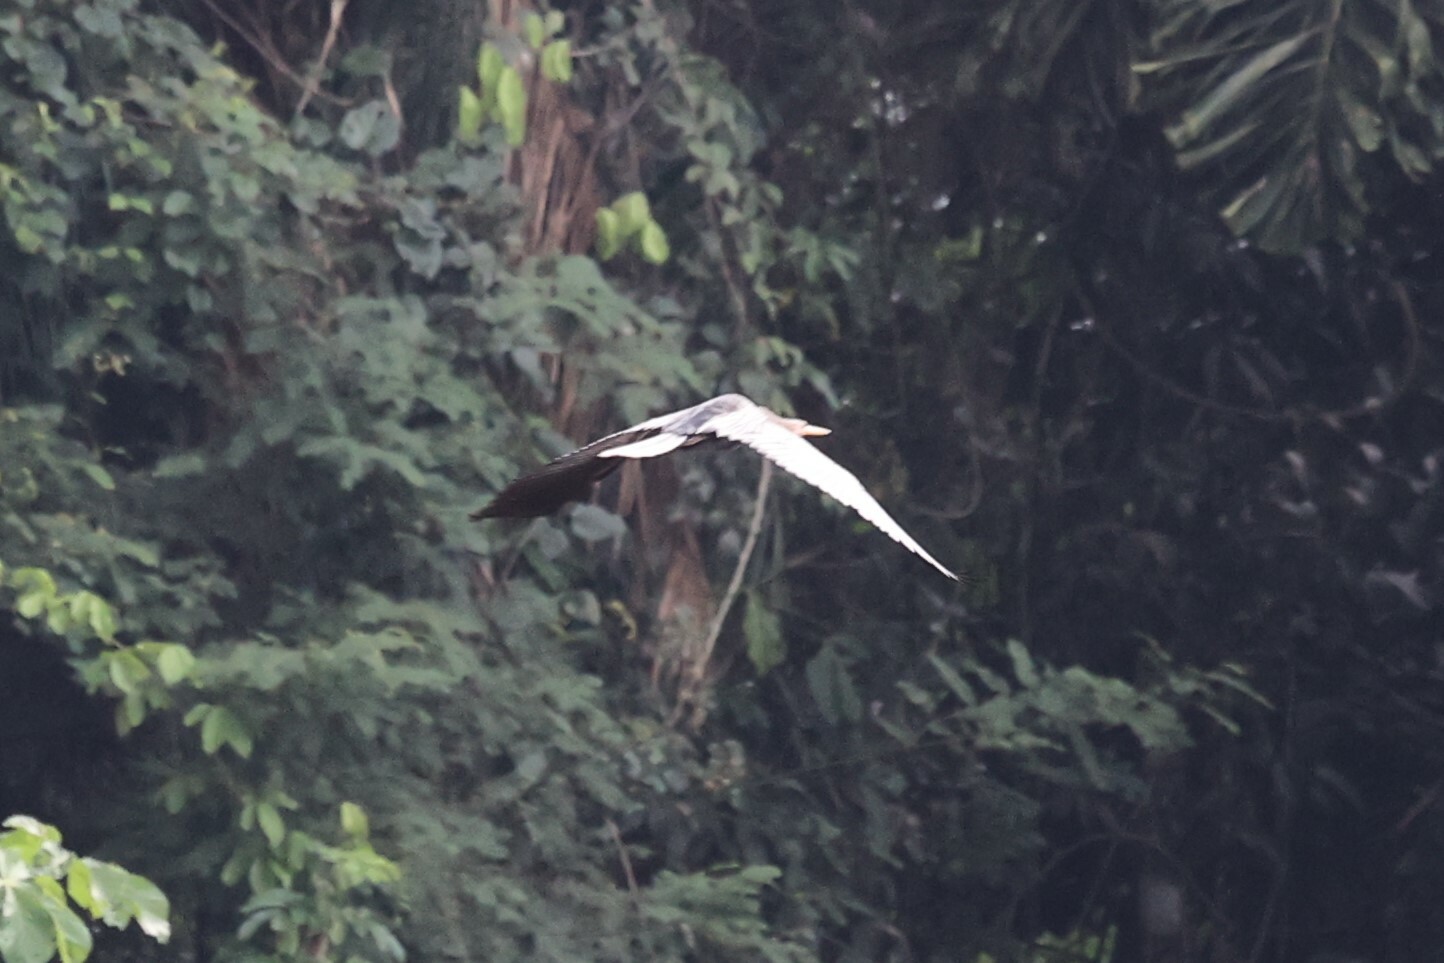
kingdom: Animalia
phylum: Chordata
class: Aves
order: Suliformes
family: Anhingidae
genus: Anhinga
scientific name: Anhinga anhinga
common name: Anhinga
